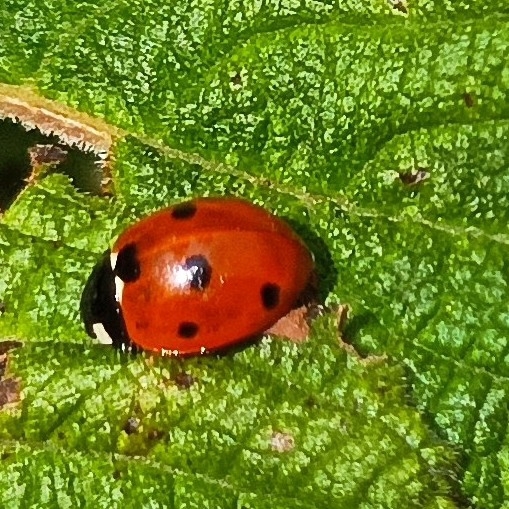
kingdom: Animalia
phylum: Arthropoda
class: Insecta
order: Coleoptera
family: Coccinellidae
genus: Coccinella
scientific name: Coccinella septempunctata
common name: Sevenspotted lady beetle
